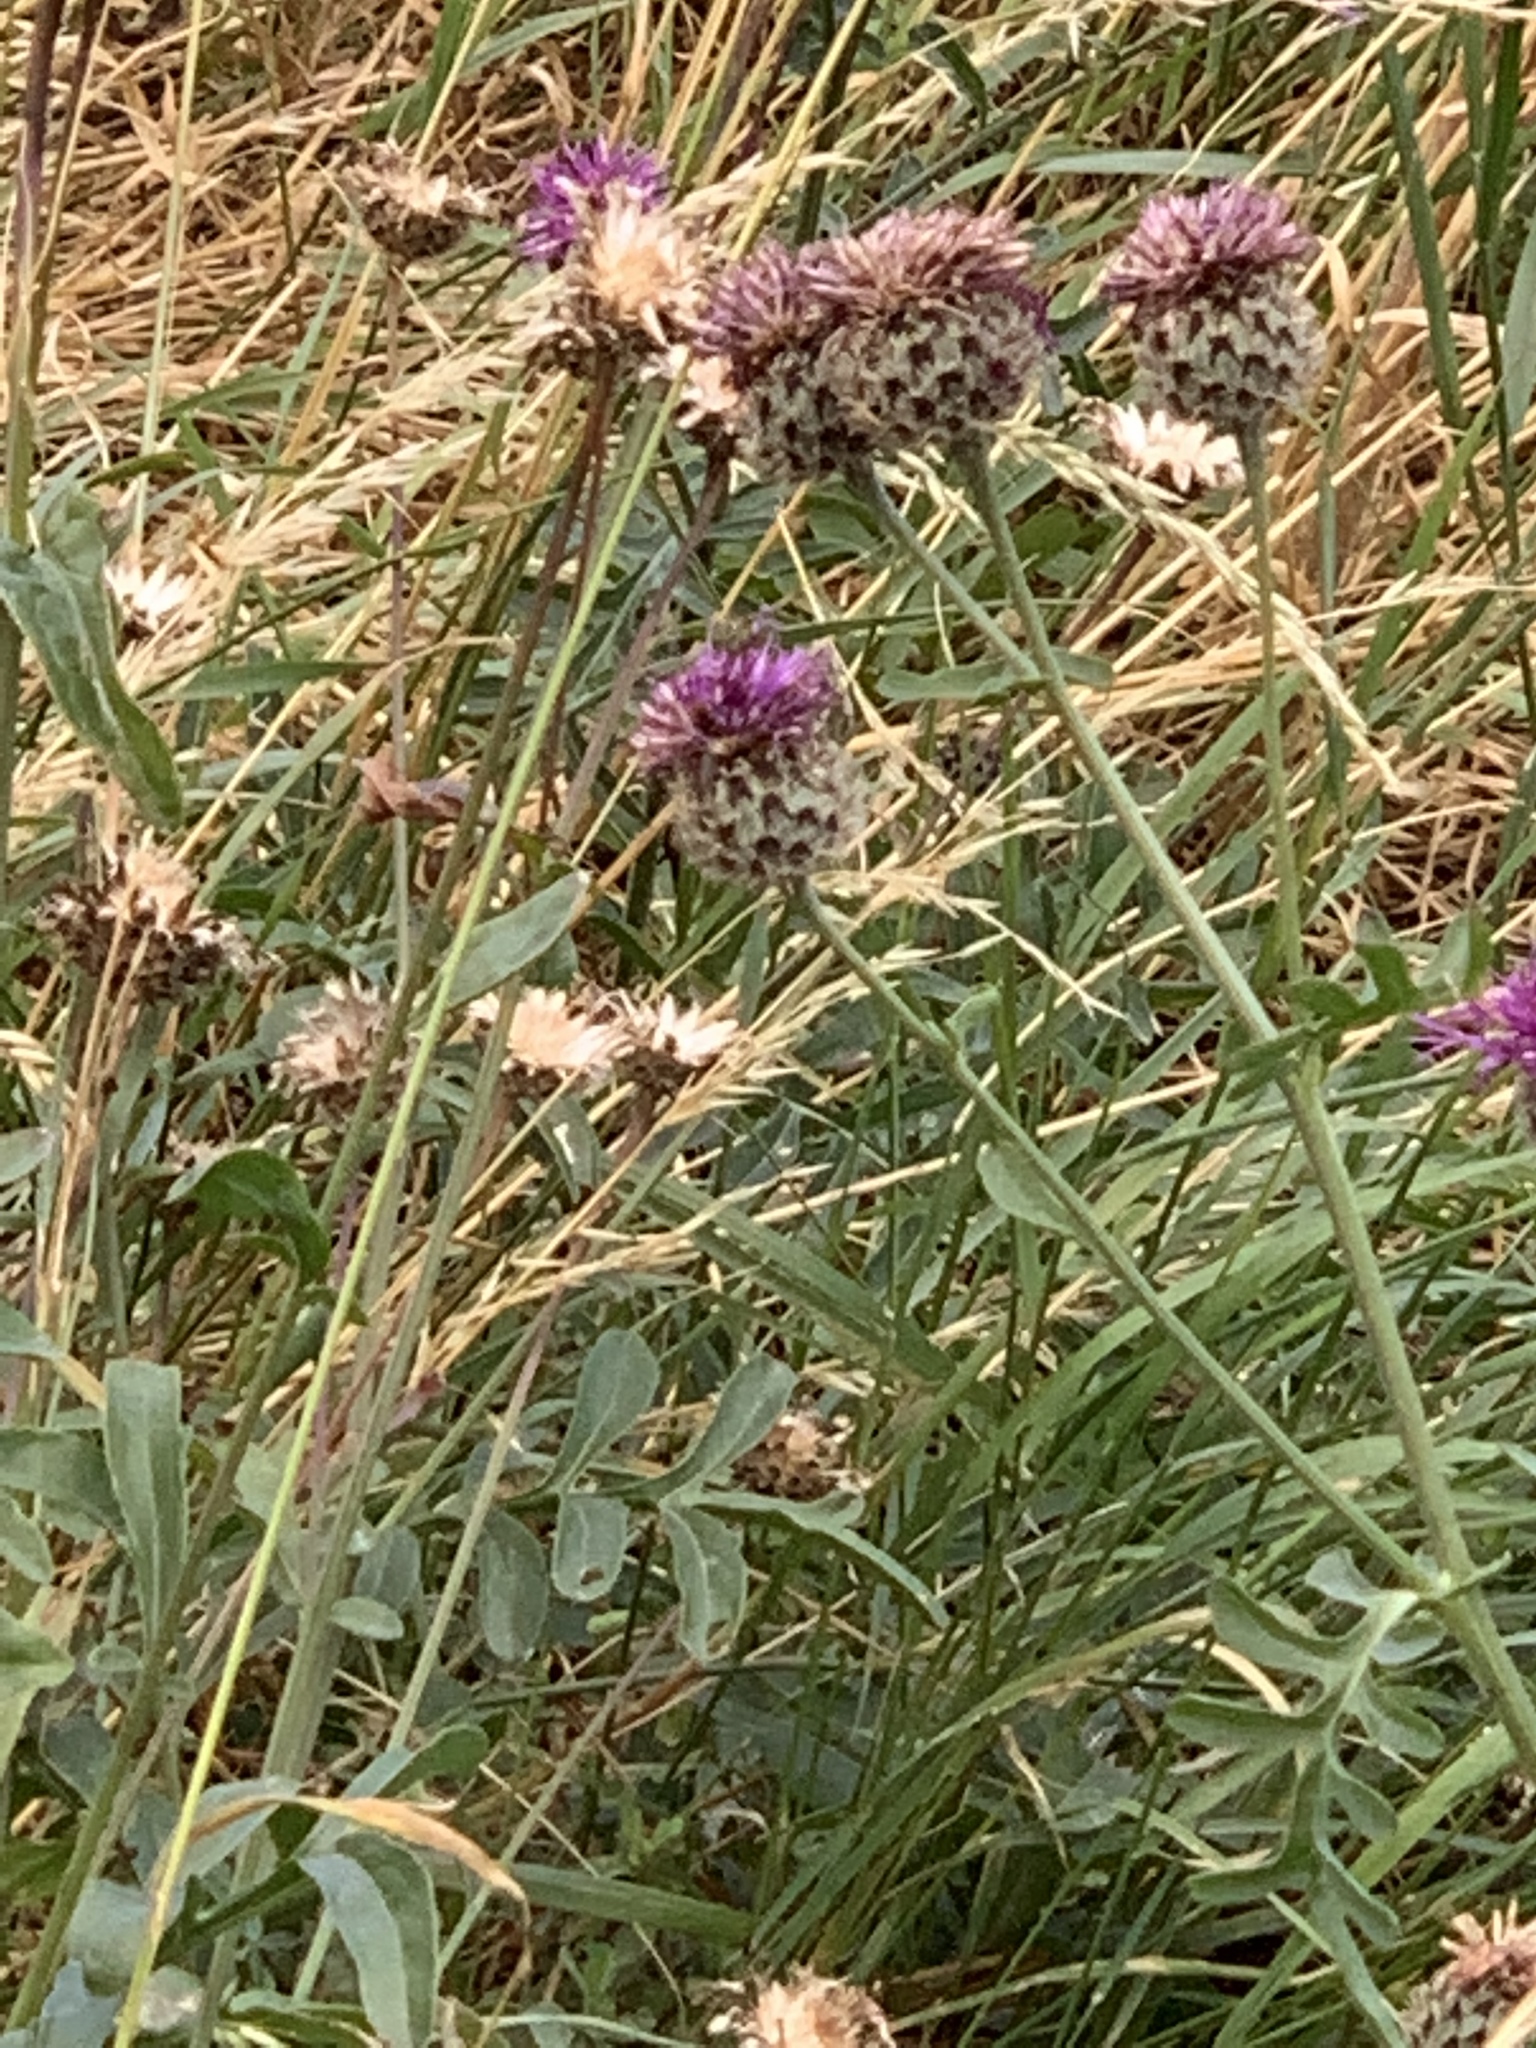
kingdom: Plantae
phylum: Tracheophyta
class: Magnoliopsida
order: Asterales
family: Asteraceae
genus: Centaurea
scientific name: Centaurea scabiosa
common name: Greater knapweed
